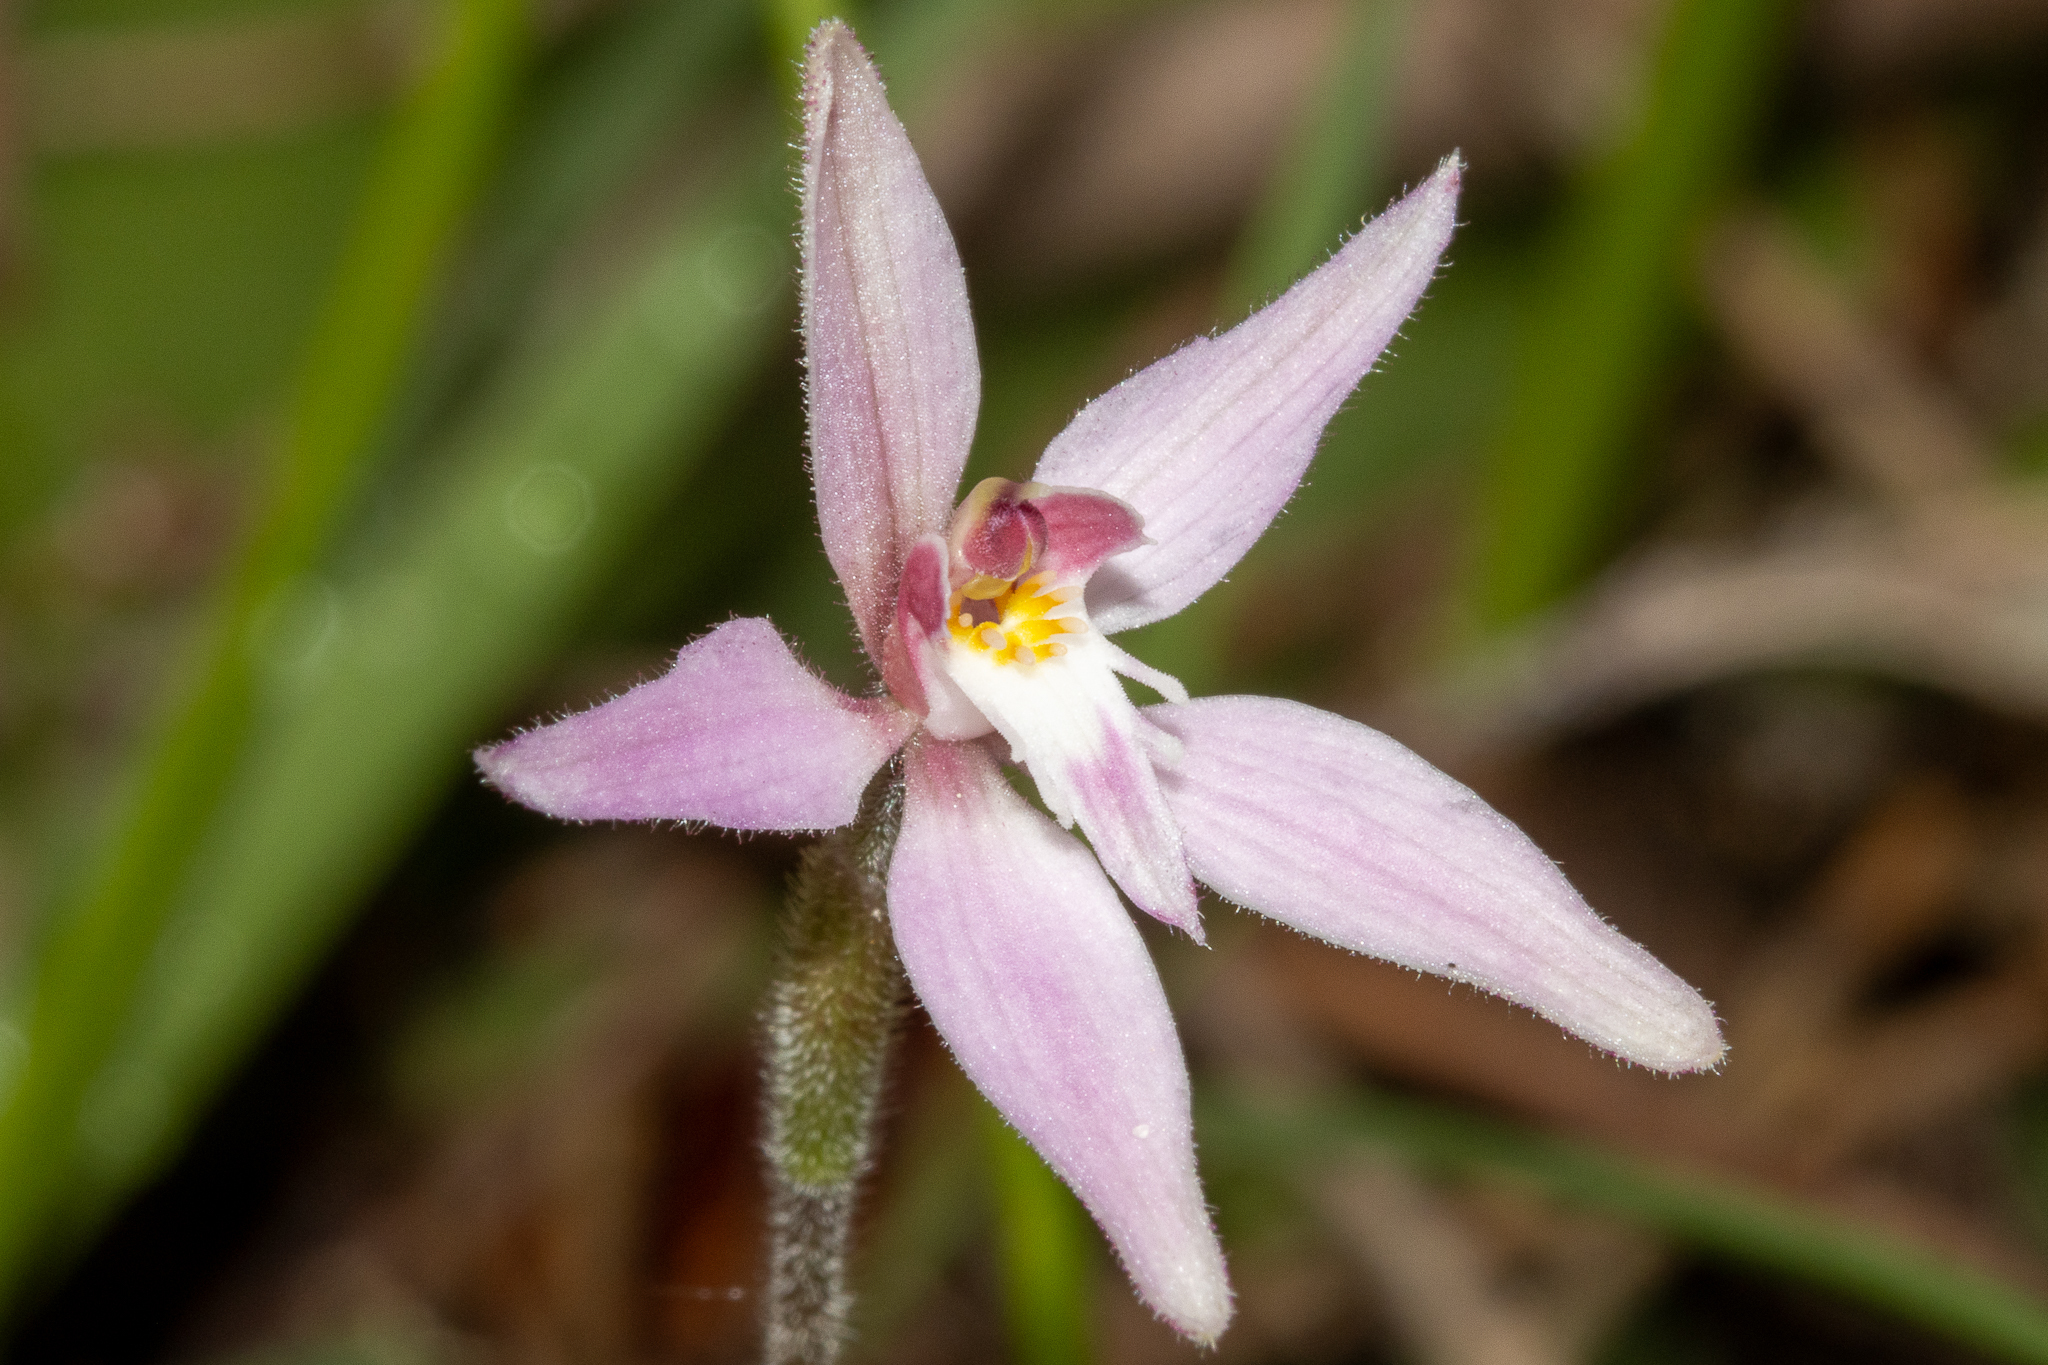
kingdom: Plantae
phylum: Tracheophyta
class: Liliopsida
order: Asparagales
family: Orchidaceae
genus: Caladenia
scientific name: Caladenia latifolia
